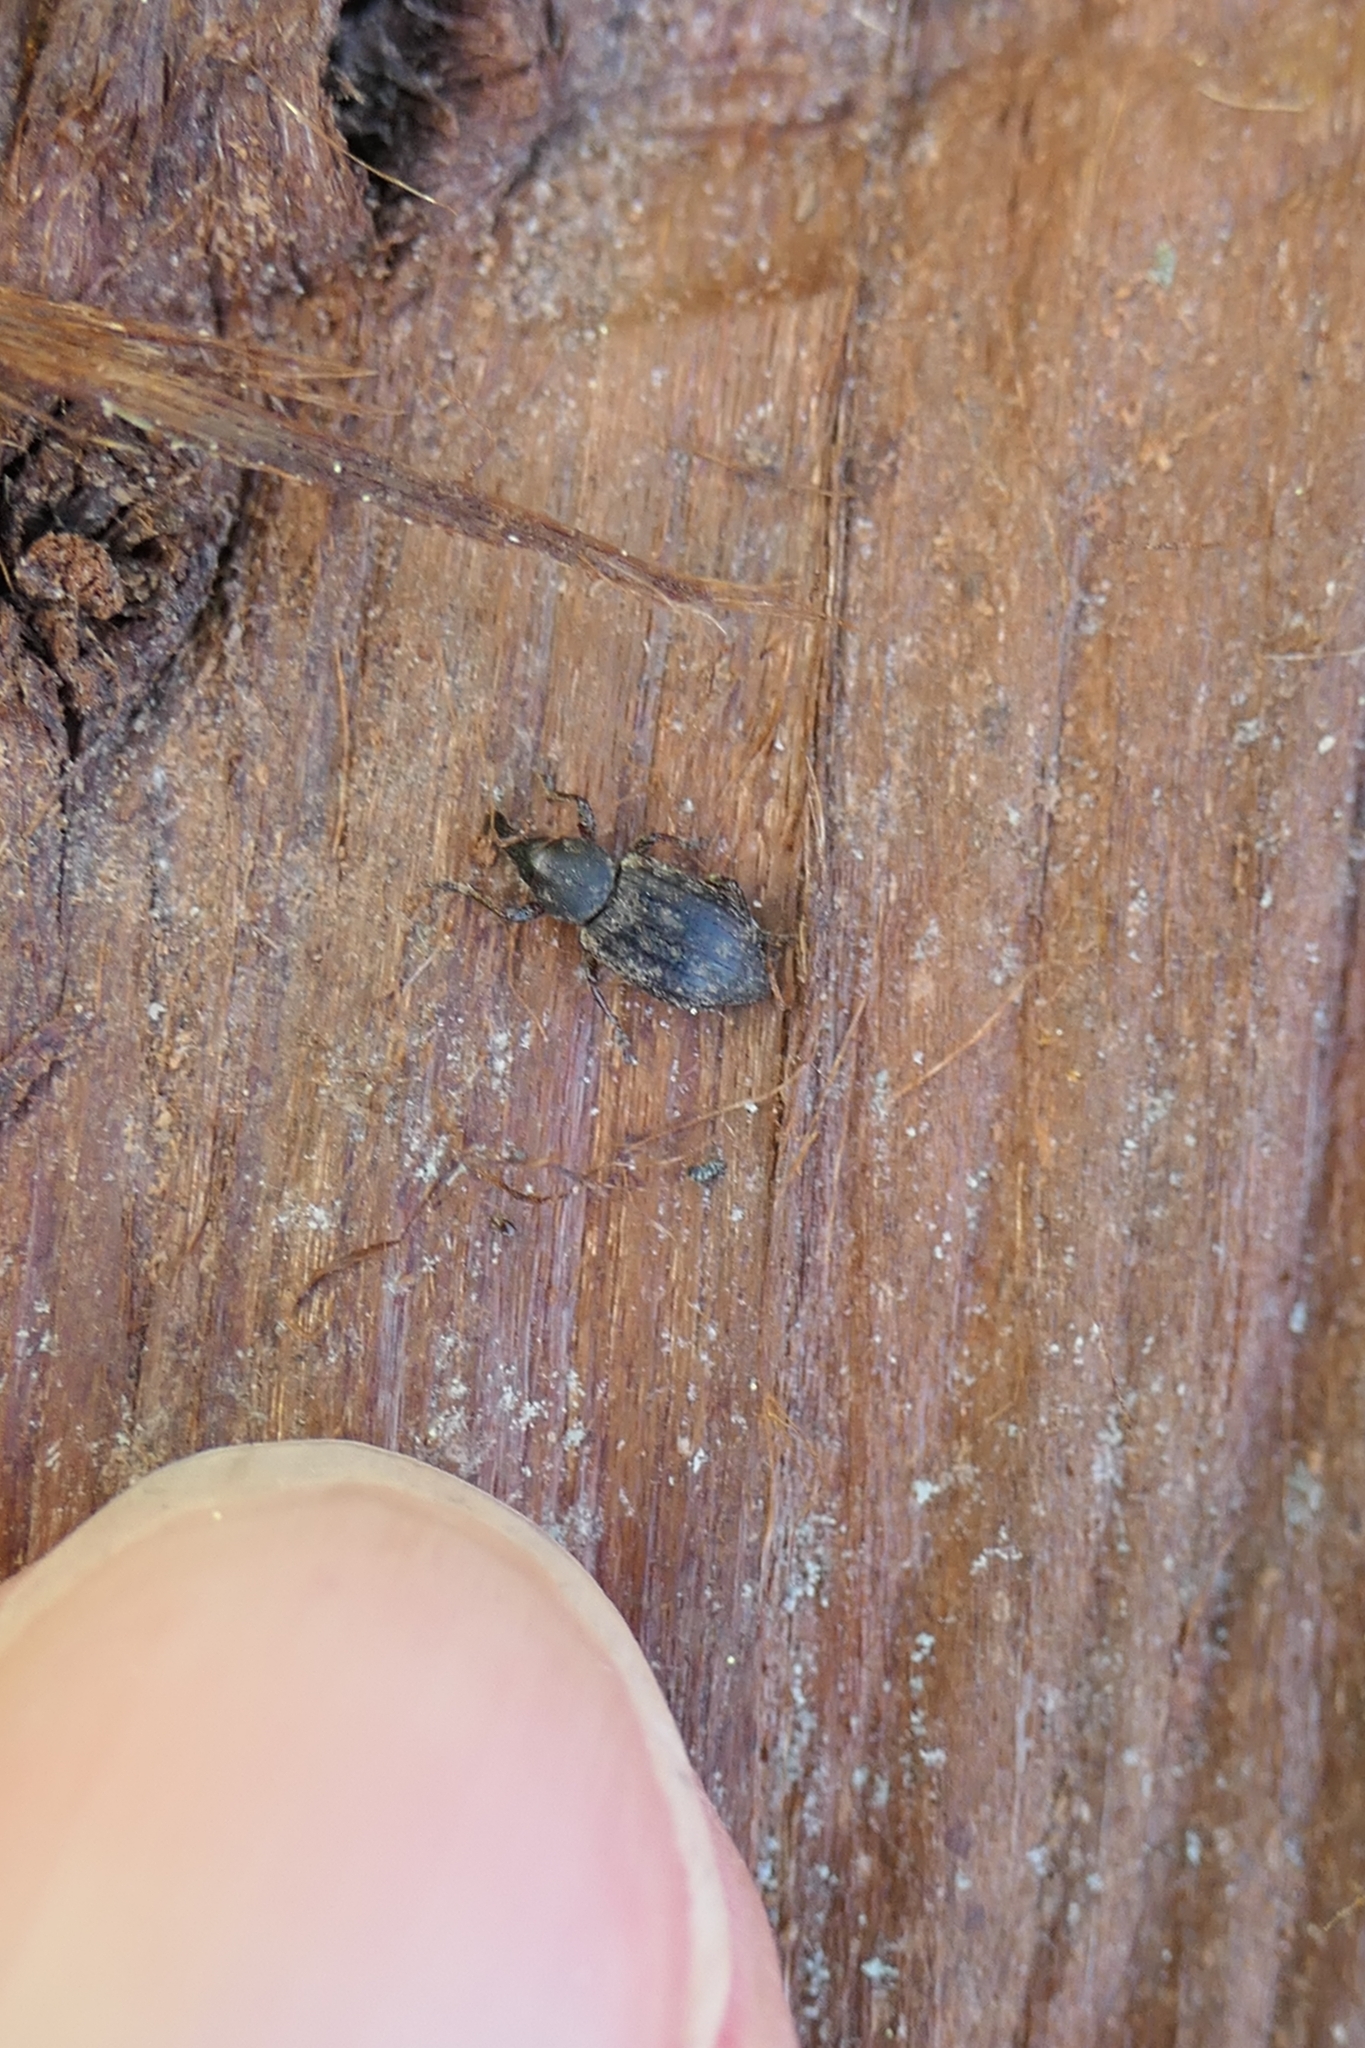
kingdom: Animalia
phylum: Arthropoda
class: Insecta
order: Coleoptera
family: Curculionidae
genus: Steriphus
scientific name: Steriphus
